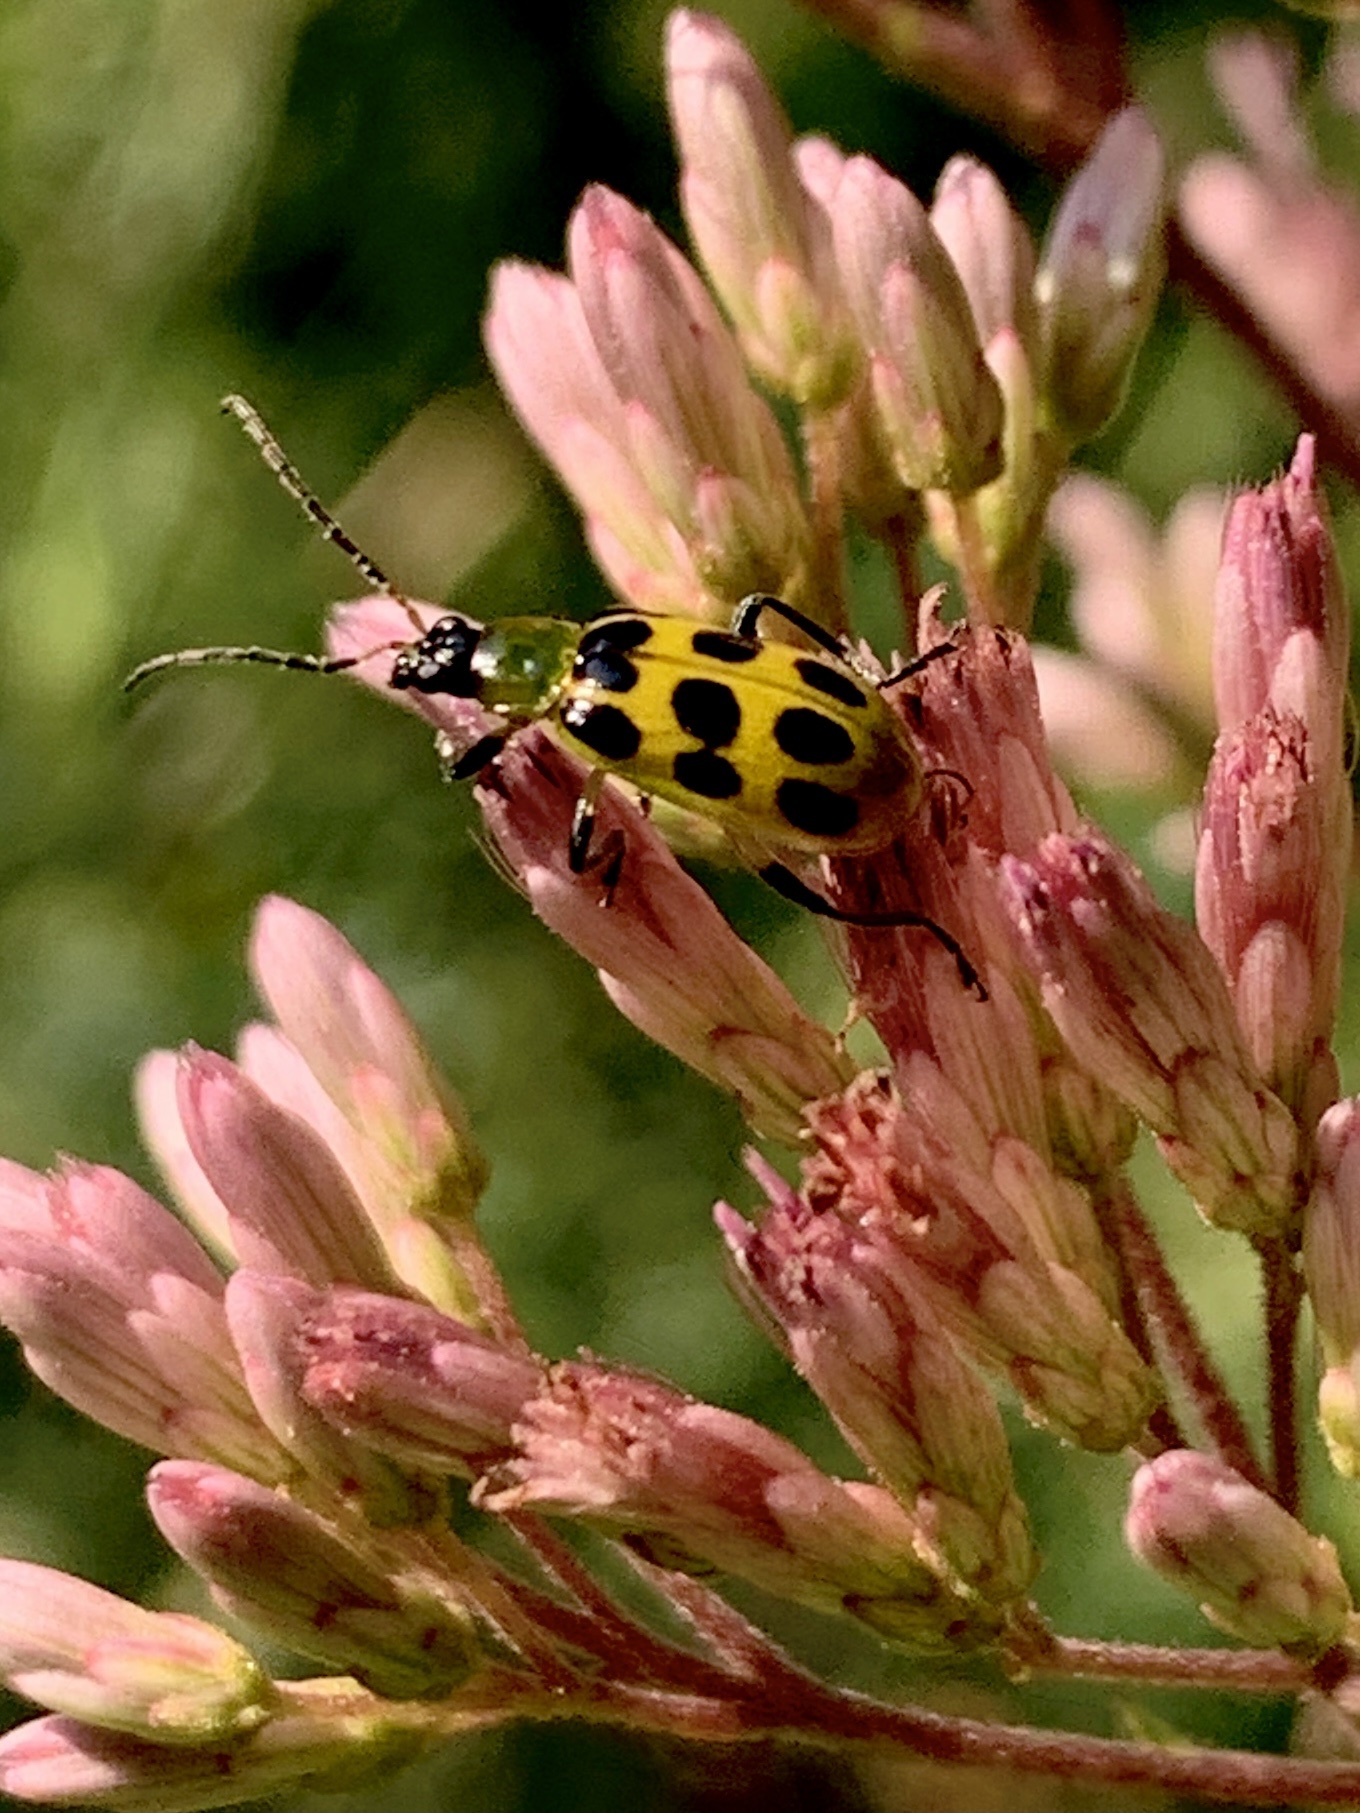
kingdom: Animalia
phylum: Arthropoda
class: Insecta
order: Coleoptera
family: Chrysomelidae
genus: Diabrotica
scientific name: Diabrotica undecimpunctata
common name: Spotted cucumber beetle
